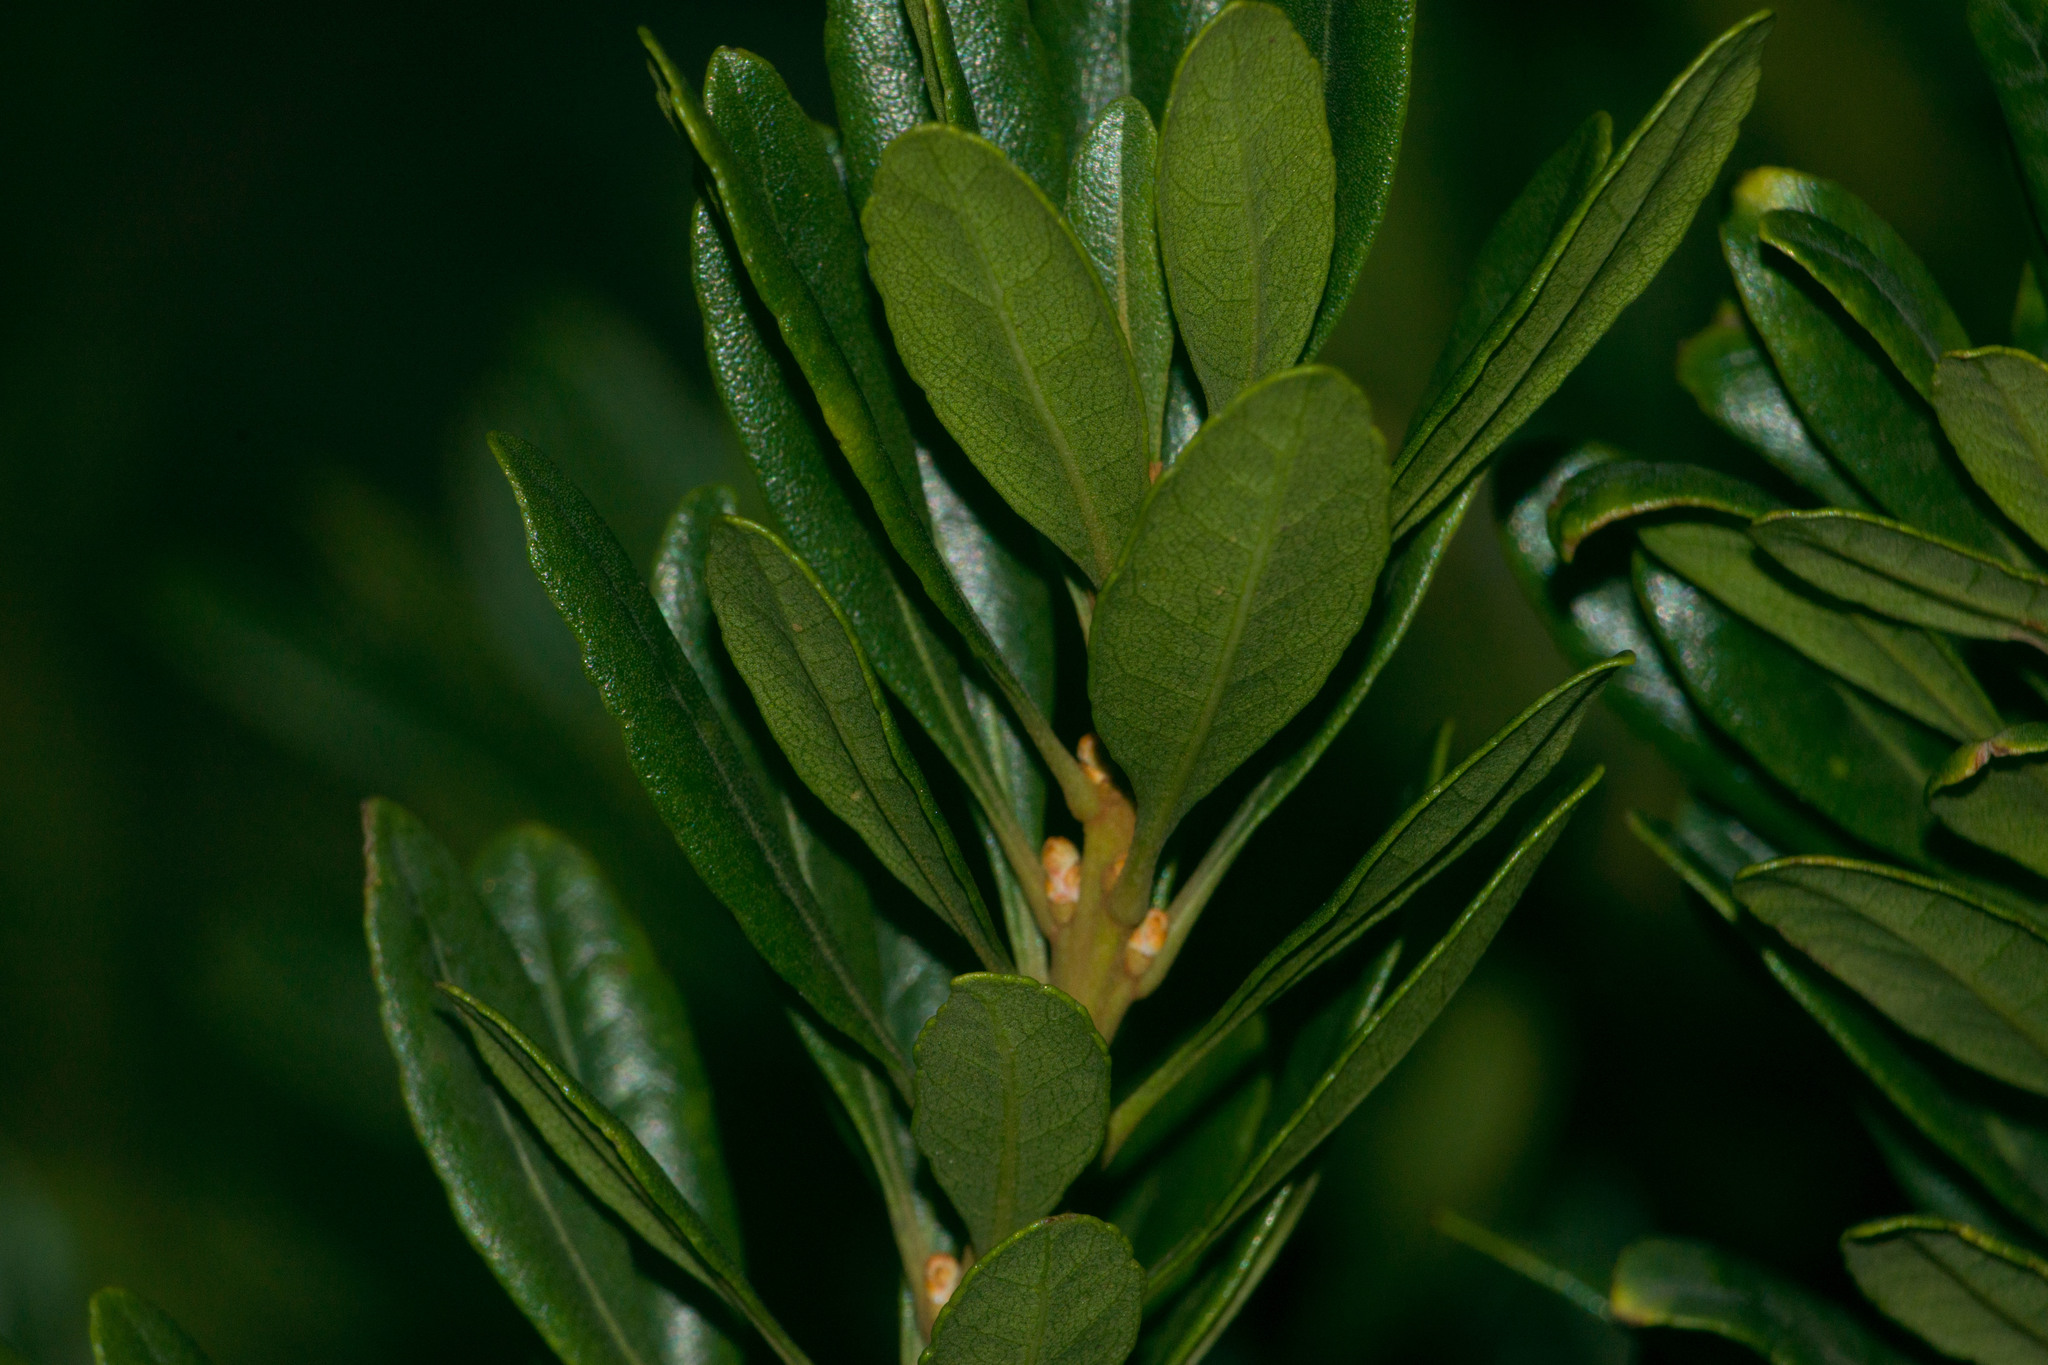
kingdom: Plantae
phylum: Tracheophyta
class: Magnoliopsida
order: Fagales
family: Myricaceae
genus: Morella
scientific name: Morella faya
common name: Firetree
